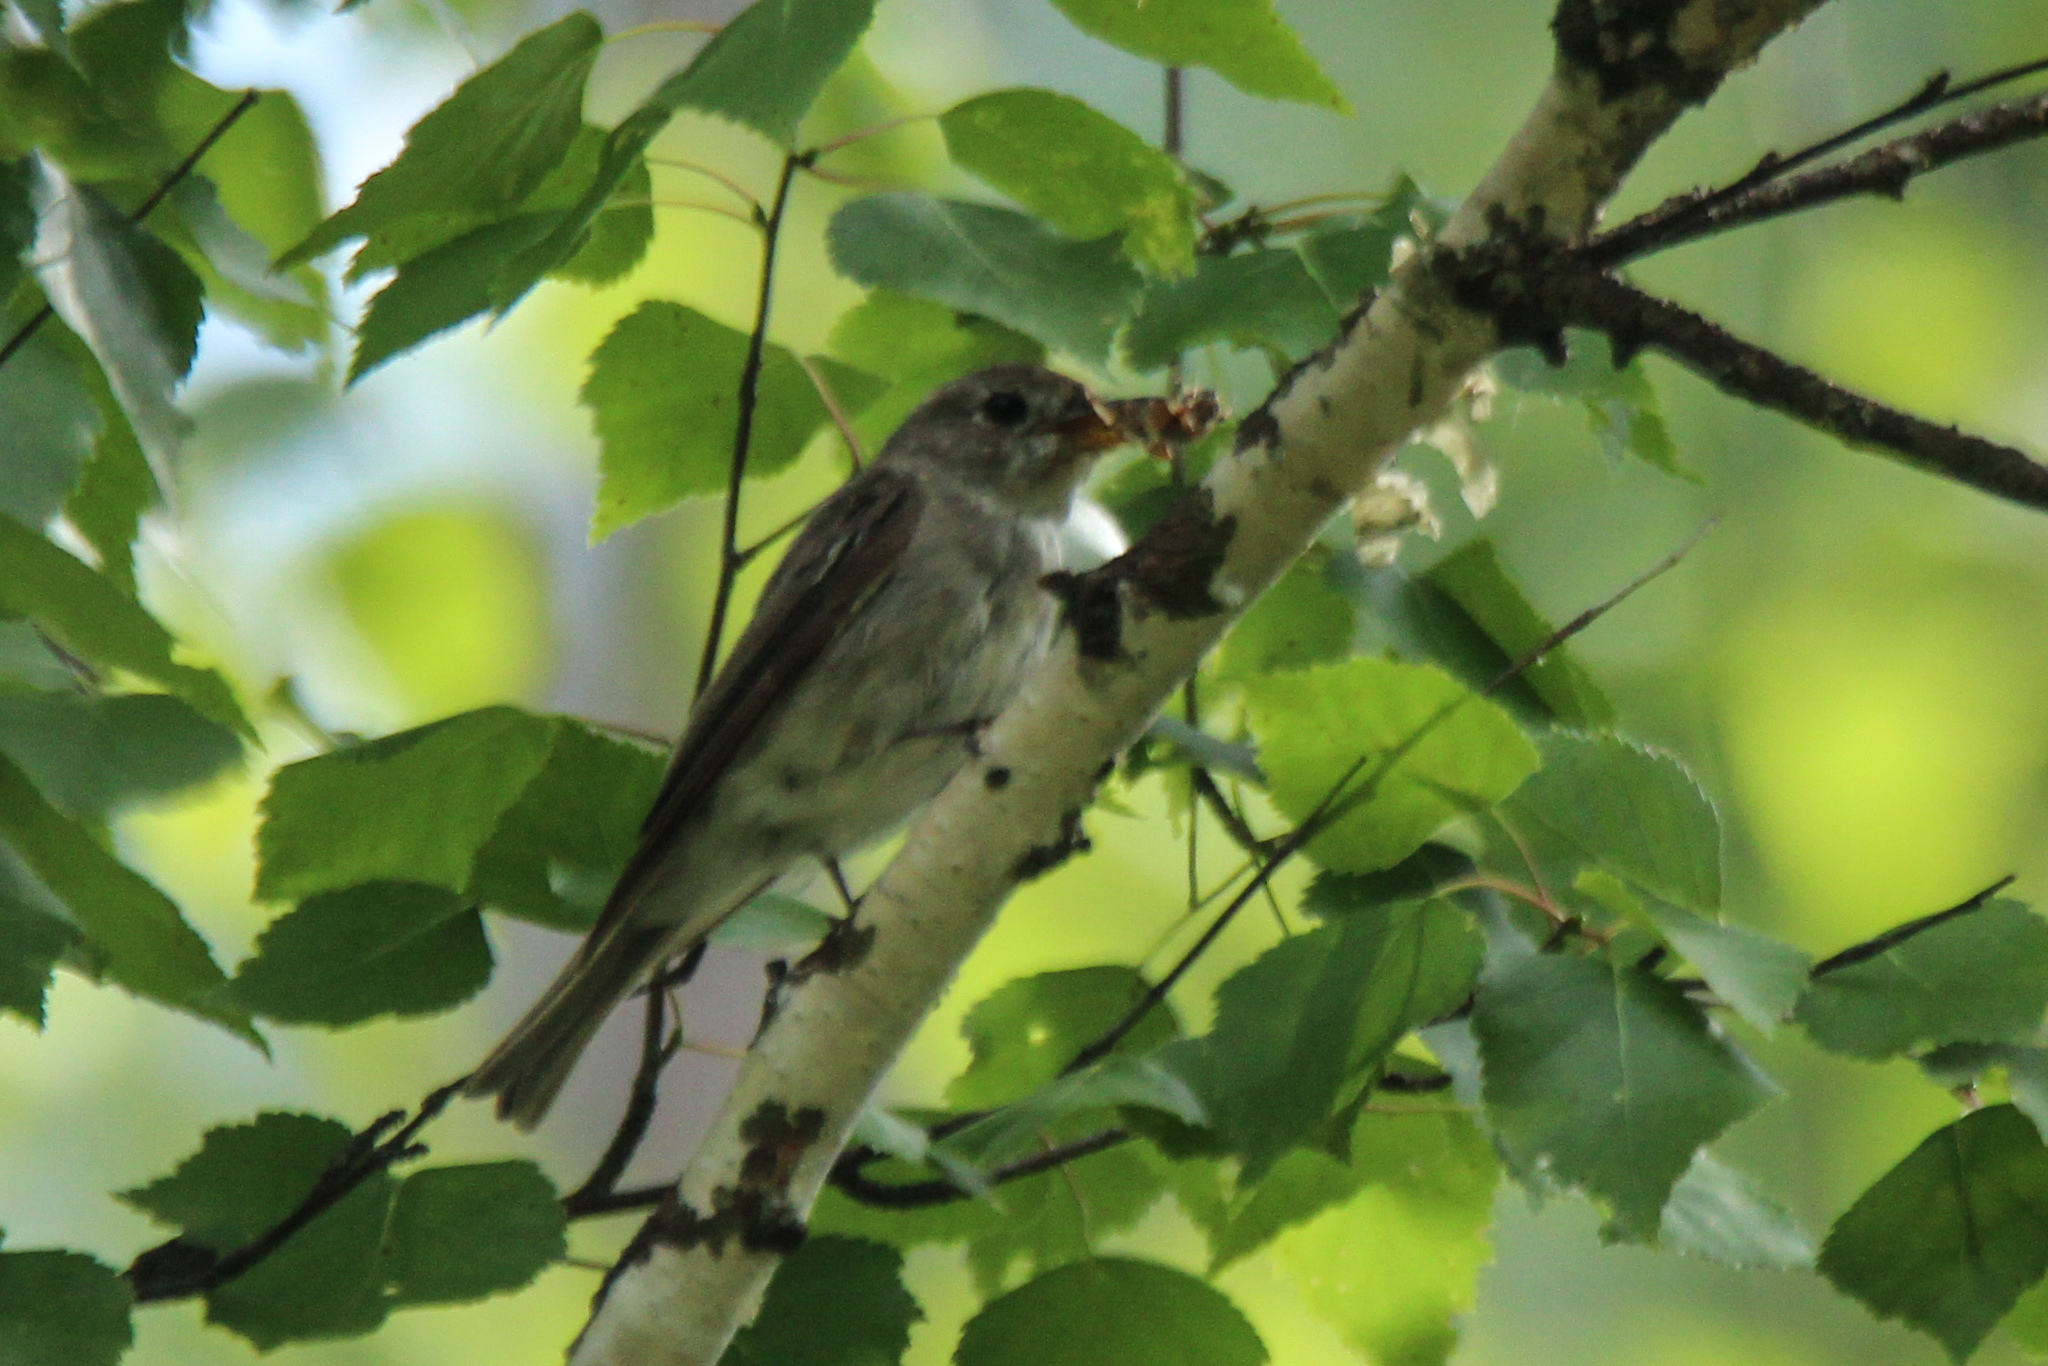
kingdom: Animalia
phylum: Chordata
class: Aves
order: Passeriformes
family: Muscicapidae
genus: Muscicapa
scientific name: Muscicapa latirostris
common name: Asian brown flycatcher
